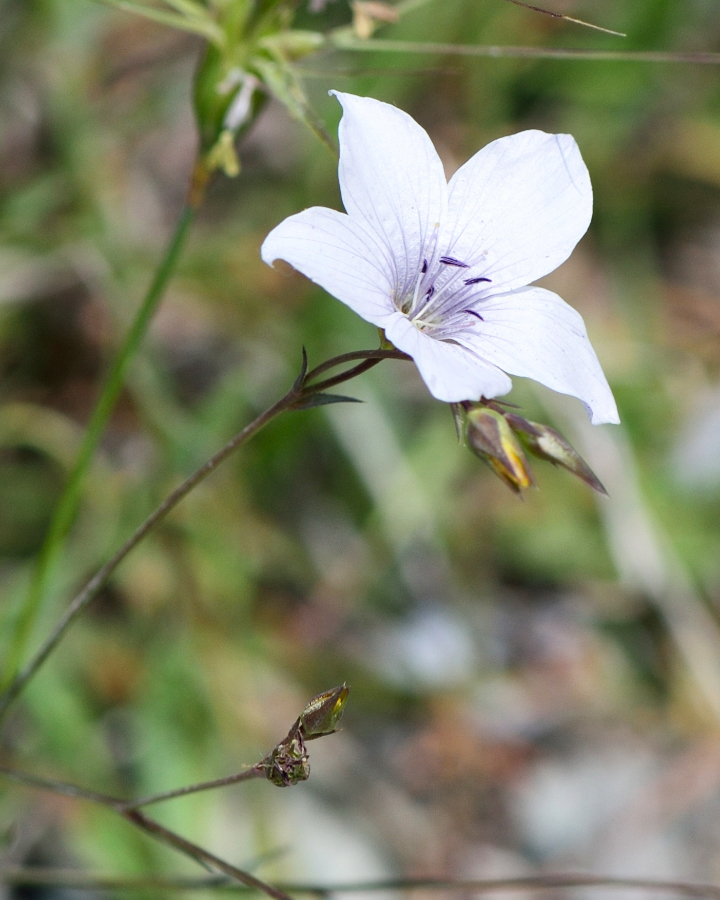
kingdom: Plantae
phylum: Tracheophyta
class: Magnoliopsida
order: Malpighiales
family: Linaceae
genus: Linum
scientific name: Linum tenuifolium
